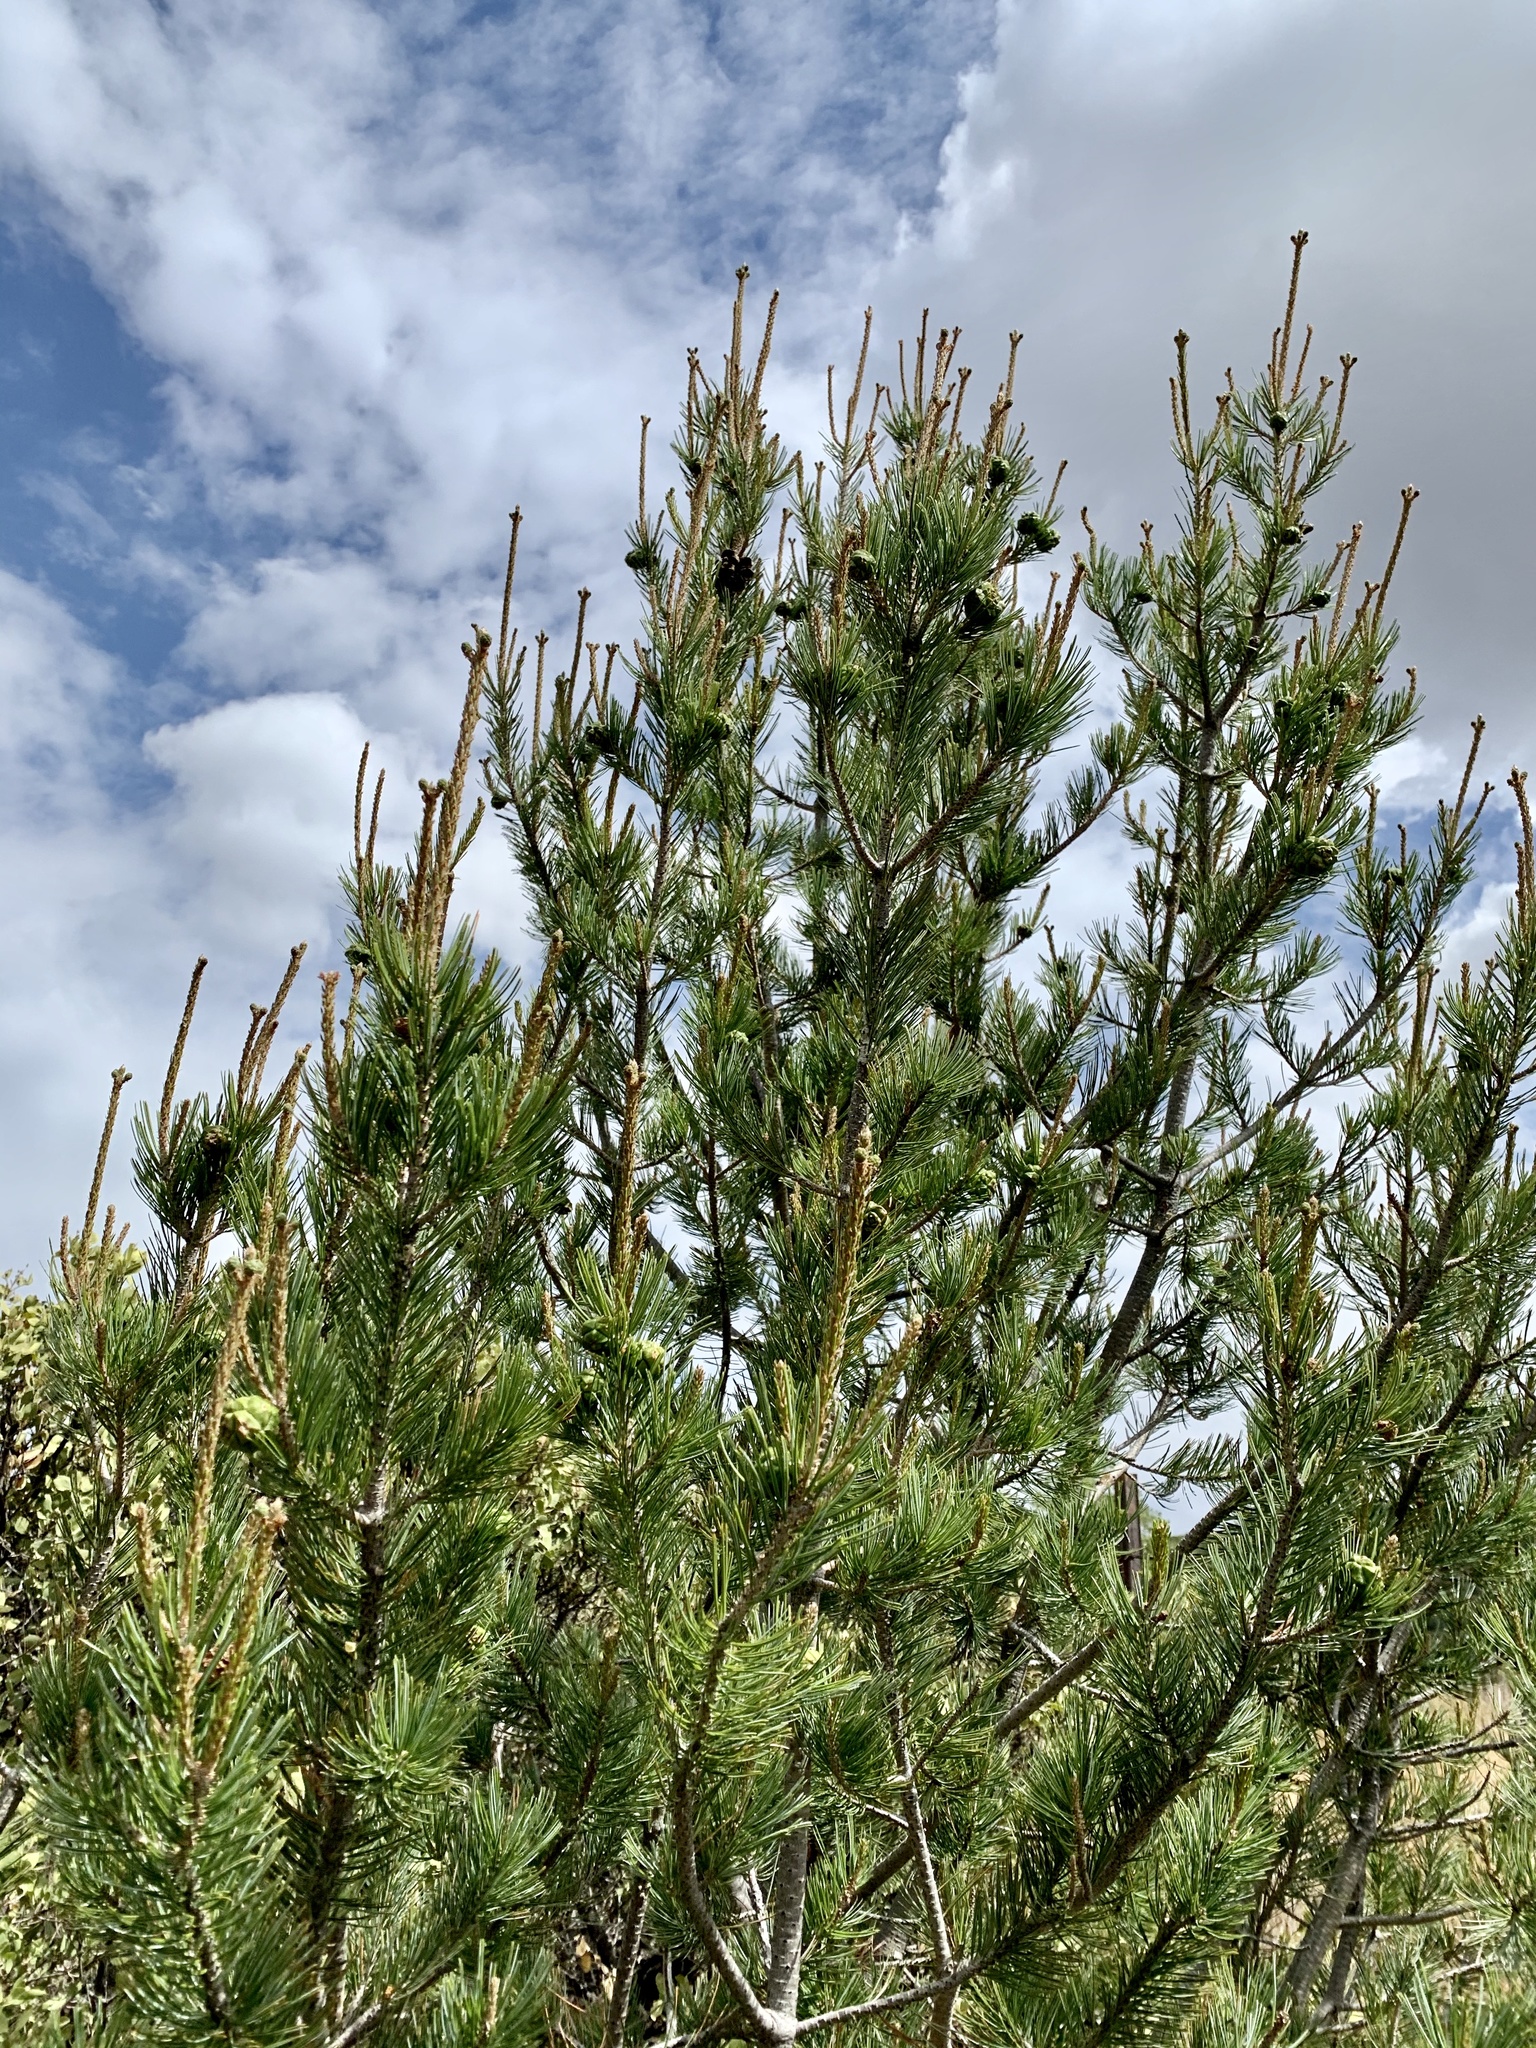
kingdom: Plantae
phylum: Tracheophyta
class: Pinopsida
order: Pinales
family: Pinaceae
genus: Pinus
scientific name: Pinus cembroides
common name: Mexican nut pine
